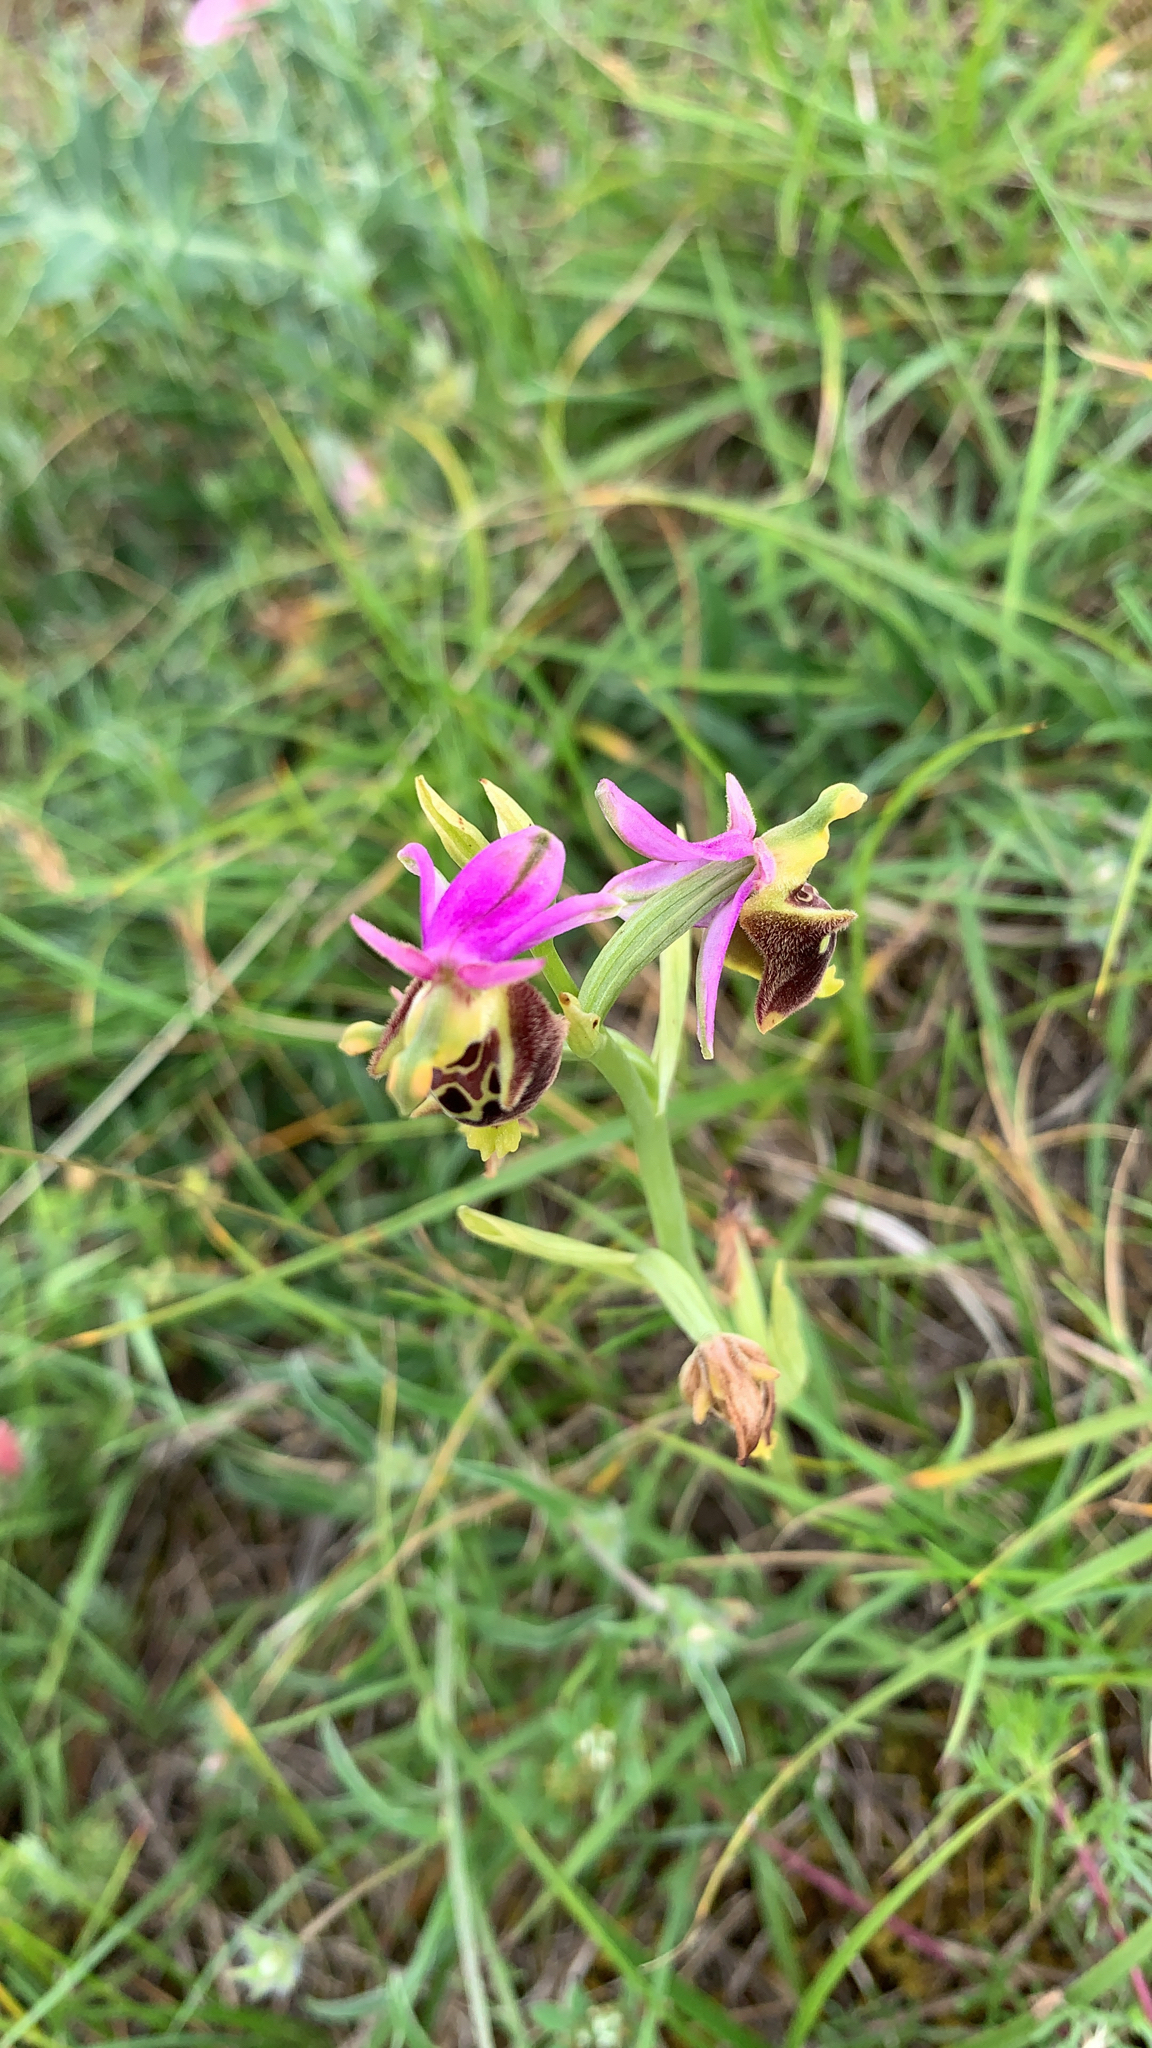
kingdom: Plantae
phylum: Tracheophyta
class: Liliopsida
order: Asparagales
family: Orchidaceae
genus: Ophrys
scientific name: Ophrys holosericea
